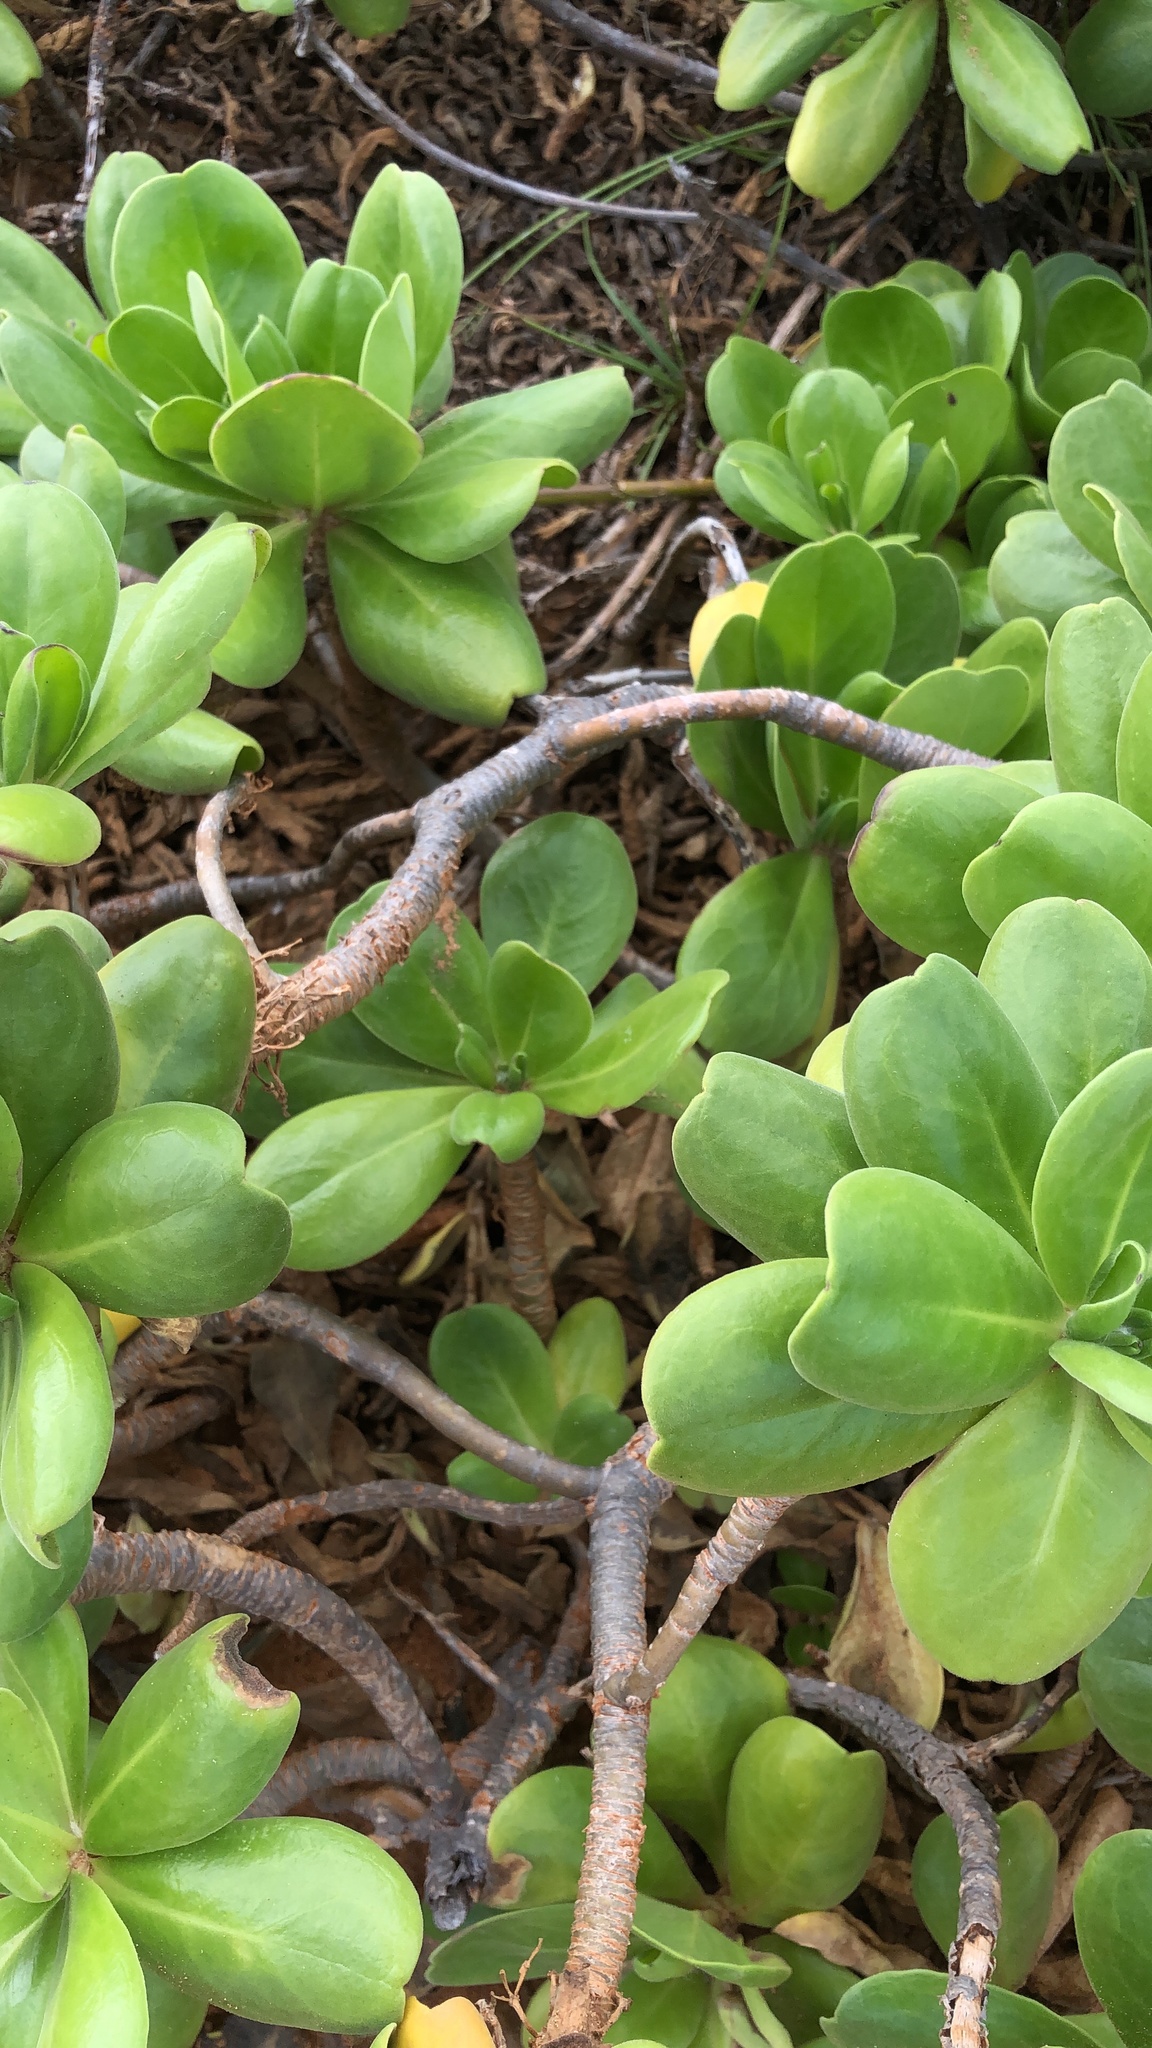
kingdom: Plantae
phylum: Tracheophyta
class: Magnoliopsida
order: Asterales
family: Goodeniaceae
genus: Scaevola
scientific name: Scaevola taccada
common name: Sea lettucetree
